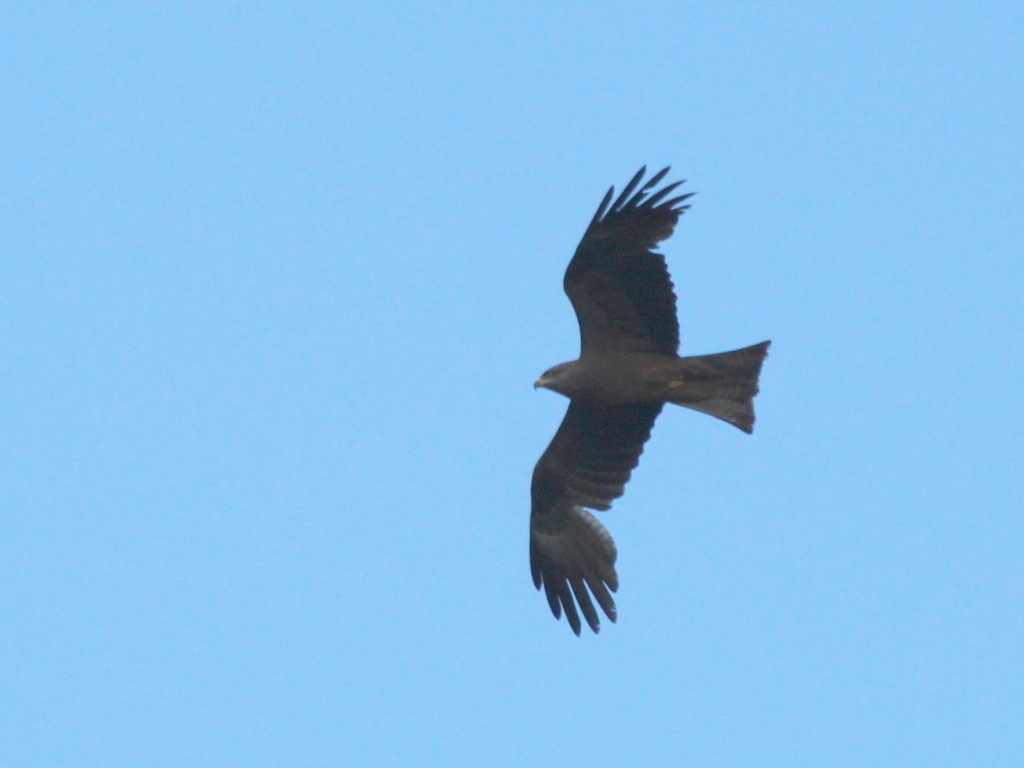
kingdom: Animalia
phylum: Chordata
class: Aves
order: Accipitriformes
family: Accipitridae
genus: Milvus
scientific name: Milvus migrans
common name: Black kite
